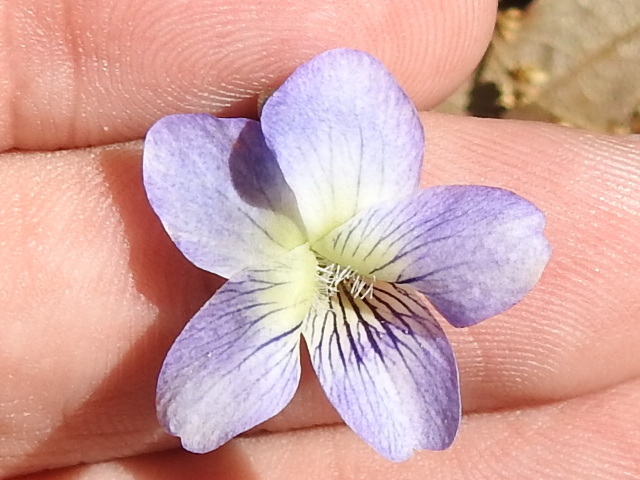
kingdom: Plantae
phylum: Tracheophyta
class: Magnoliopsida
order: Malpighiales
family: Violaceae
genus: Viola
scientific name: Viola sororia
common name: Dooryard violet
